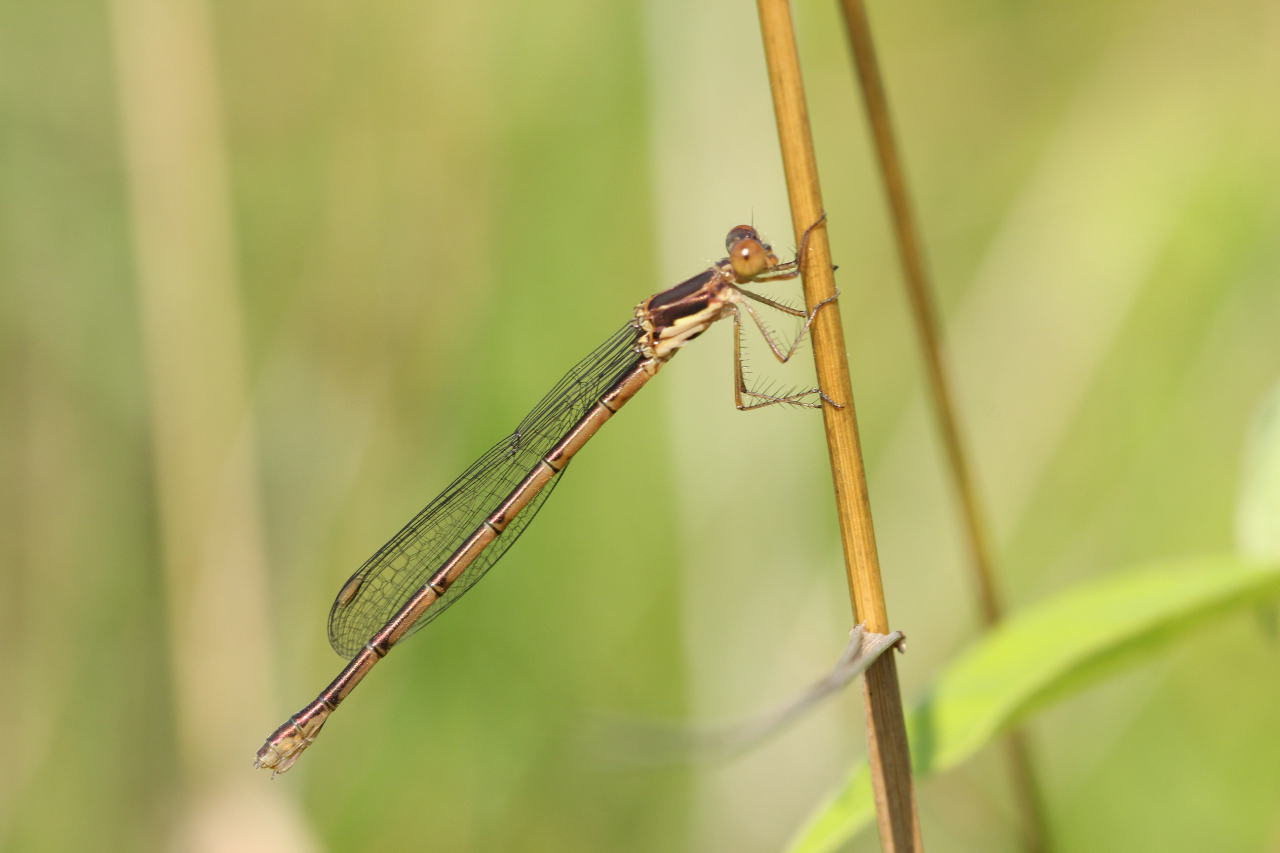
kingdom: Animalia
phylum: Arthropoda
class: Insecta
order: Odonata
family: Lestidae
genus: Lestes
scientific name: Lestes congener
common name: Spotted spreadwing
